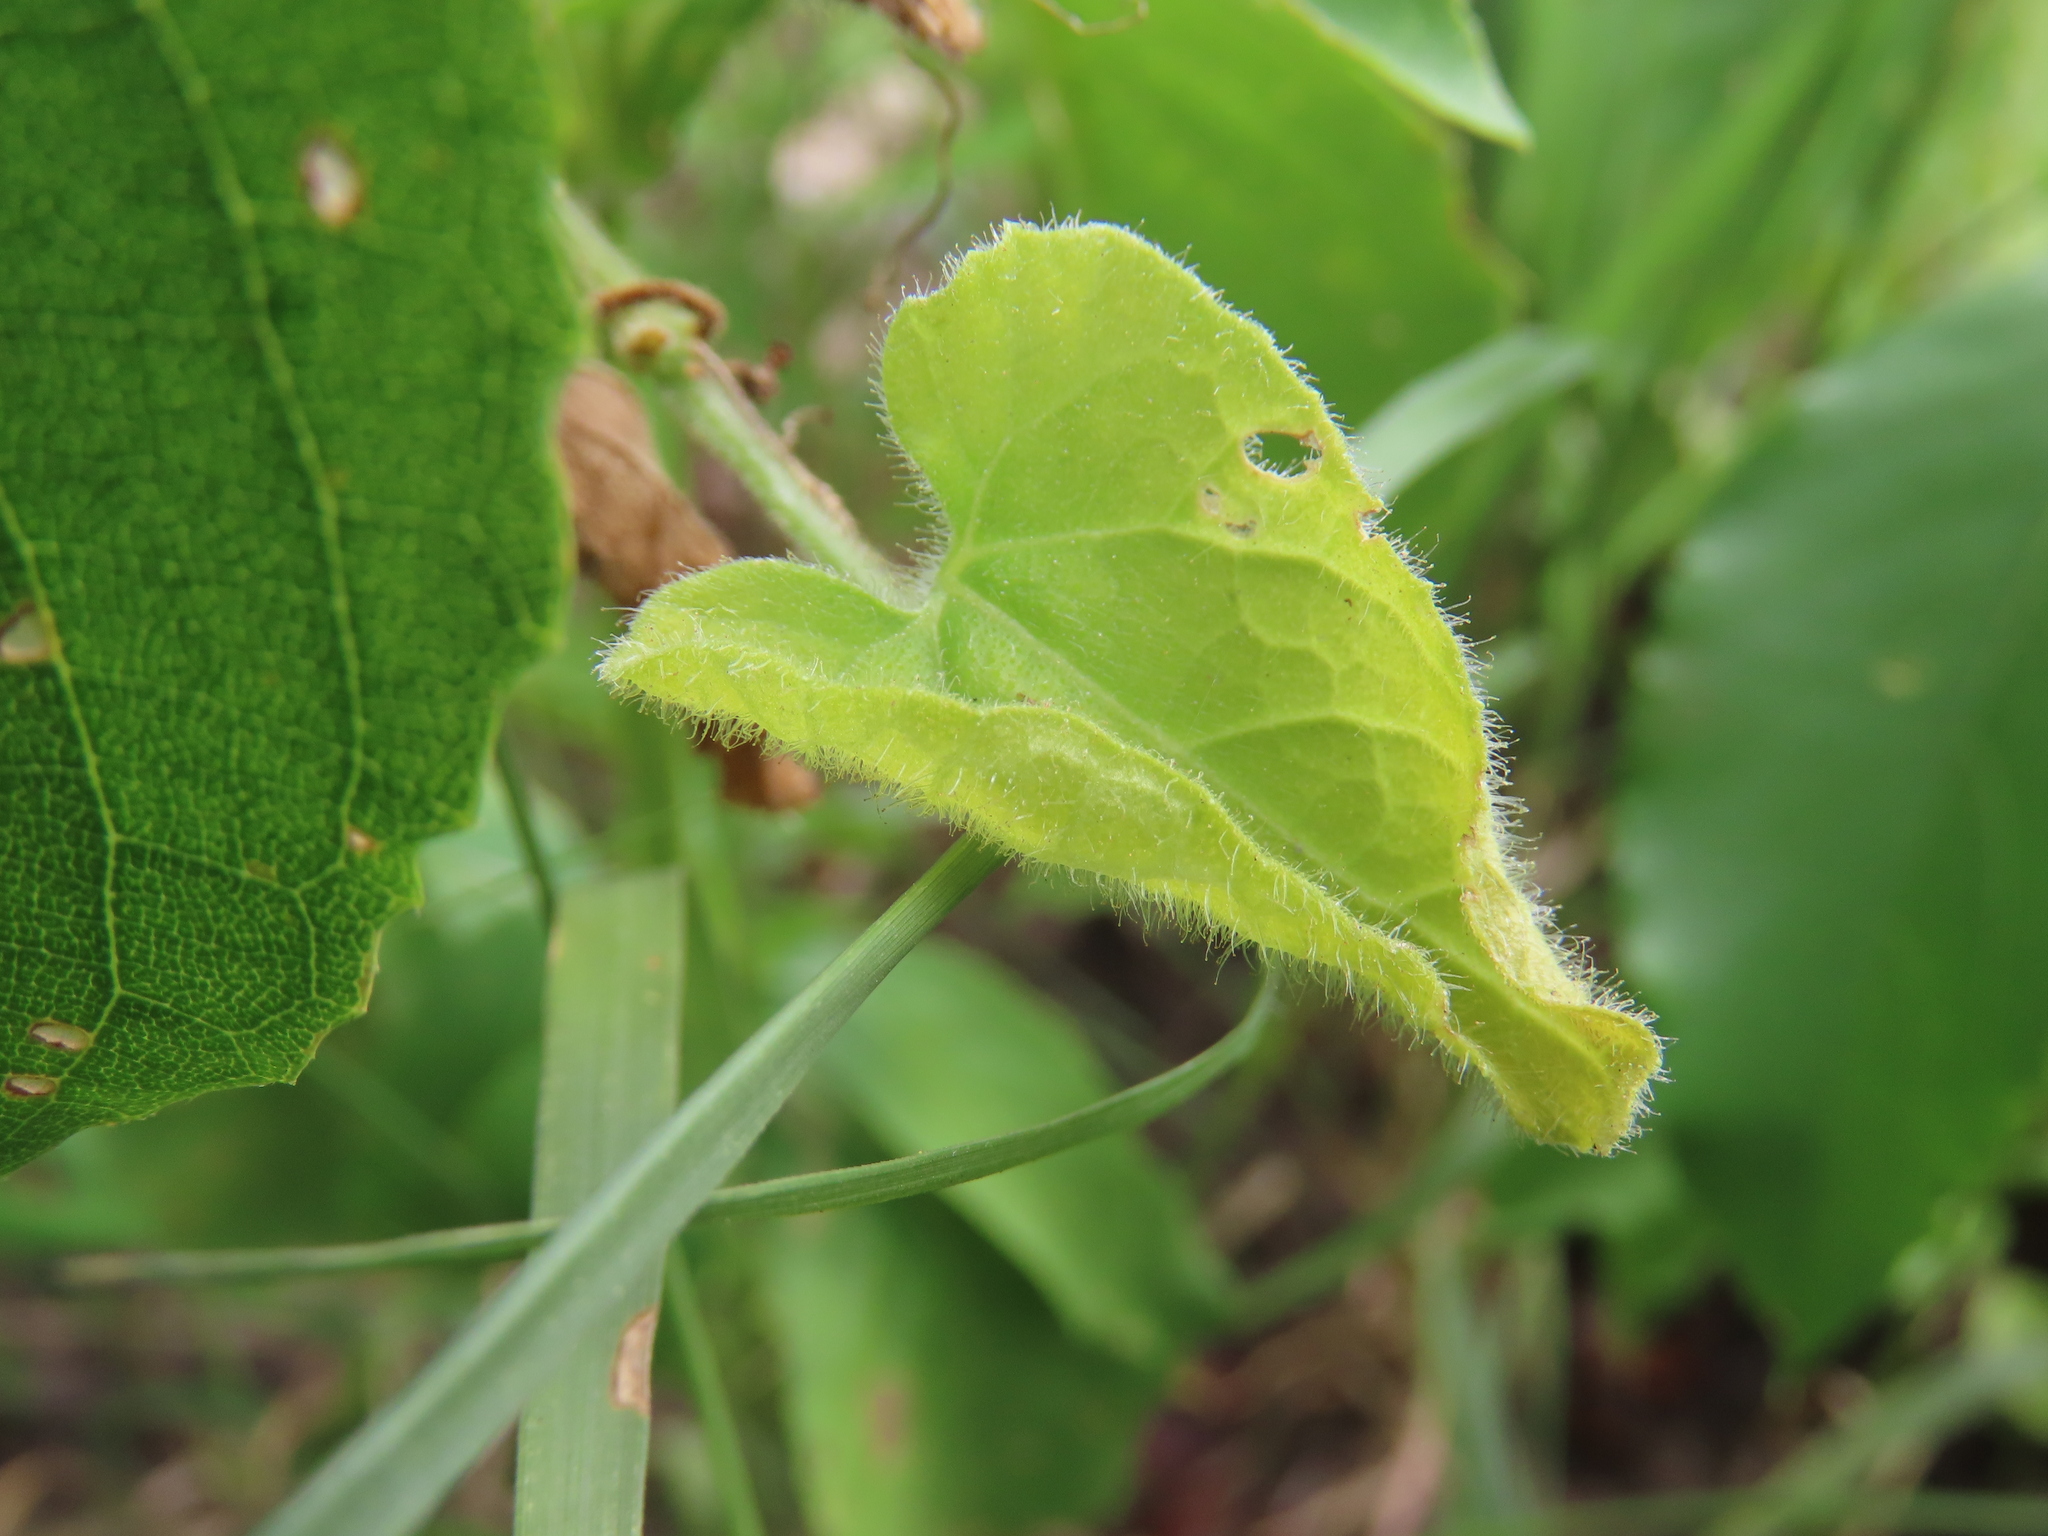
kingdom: Plantae
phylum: Tracheophyta
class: Magnoliopsida
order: Cucurbitales
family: Cucurbitaceae
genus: Kedrostis
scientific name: Kedrostis foetidissima
